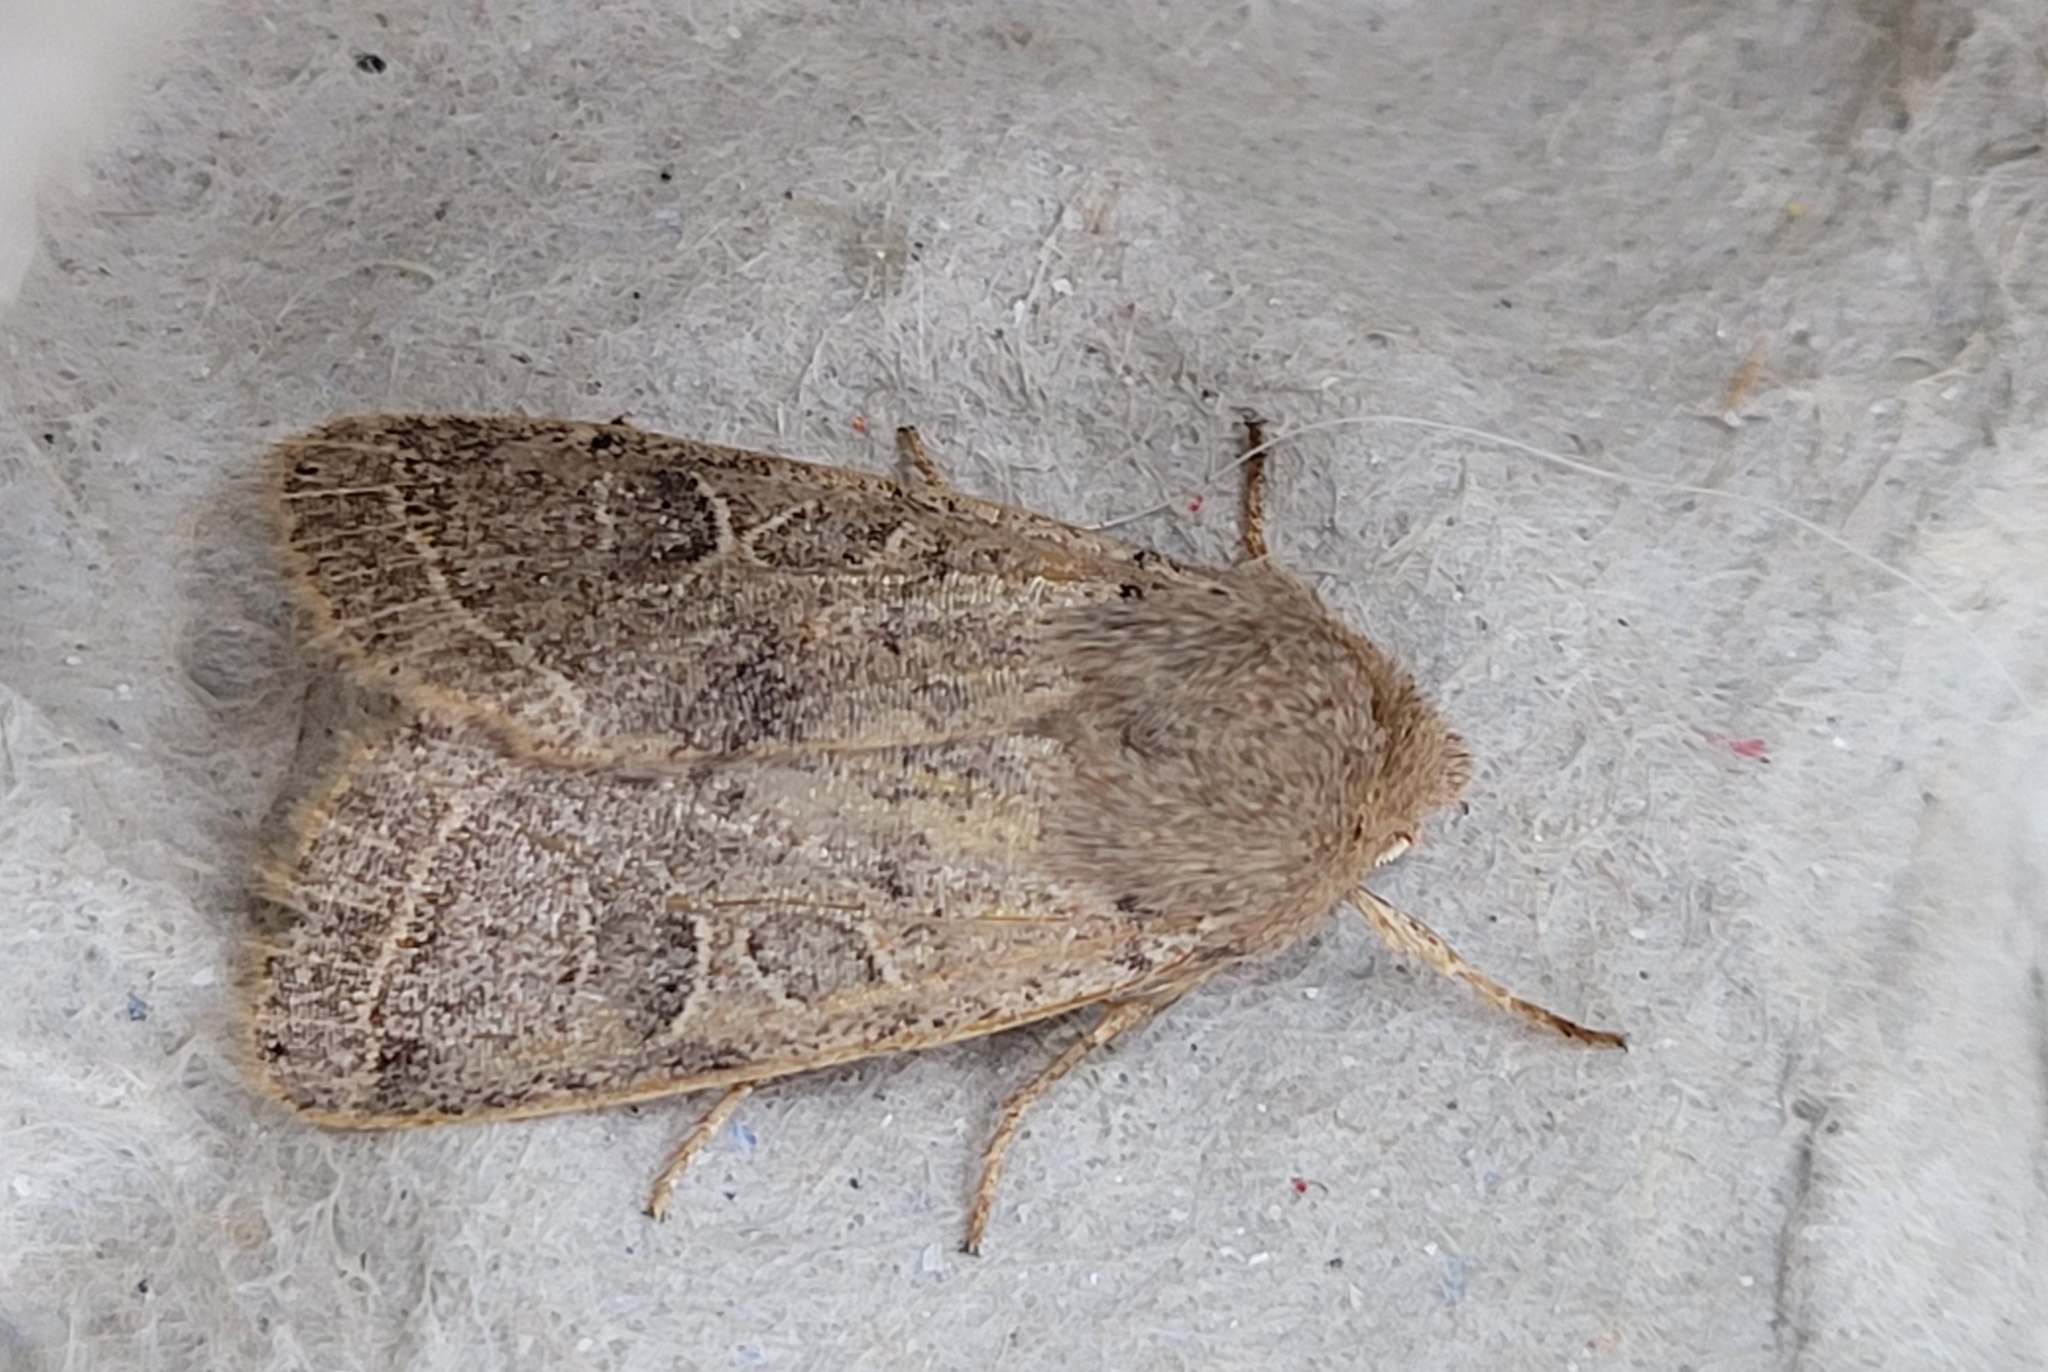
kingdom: Animalia
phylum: Arthropoda
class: Insecta
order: Lepidoptera
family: Noctuidae
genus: Orthosia
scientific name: Orthosia cerasi
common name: Common quaker
